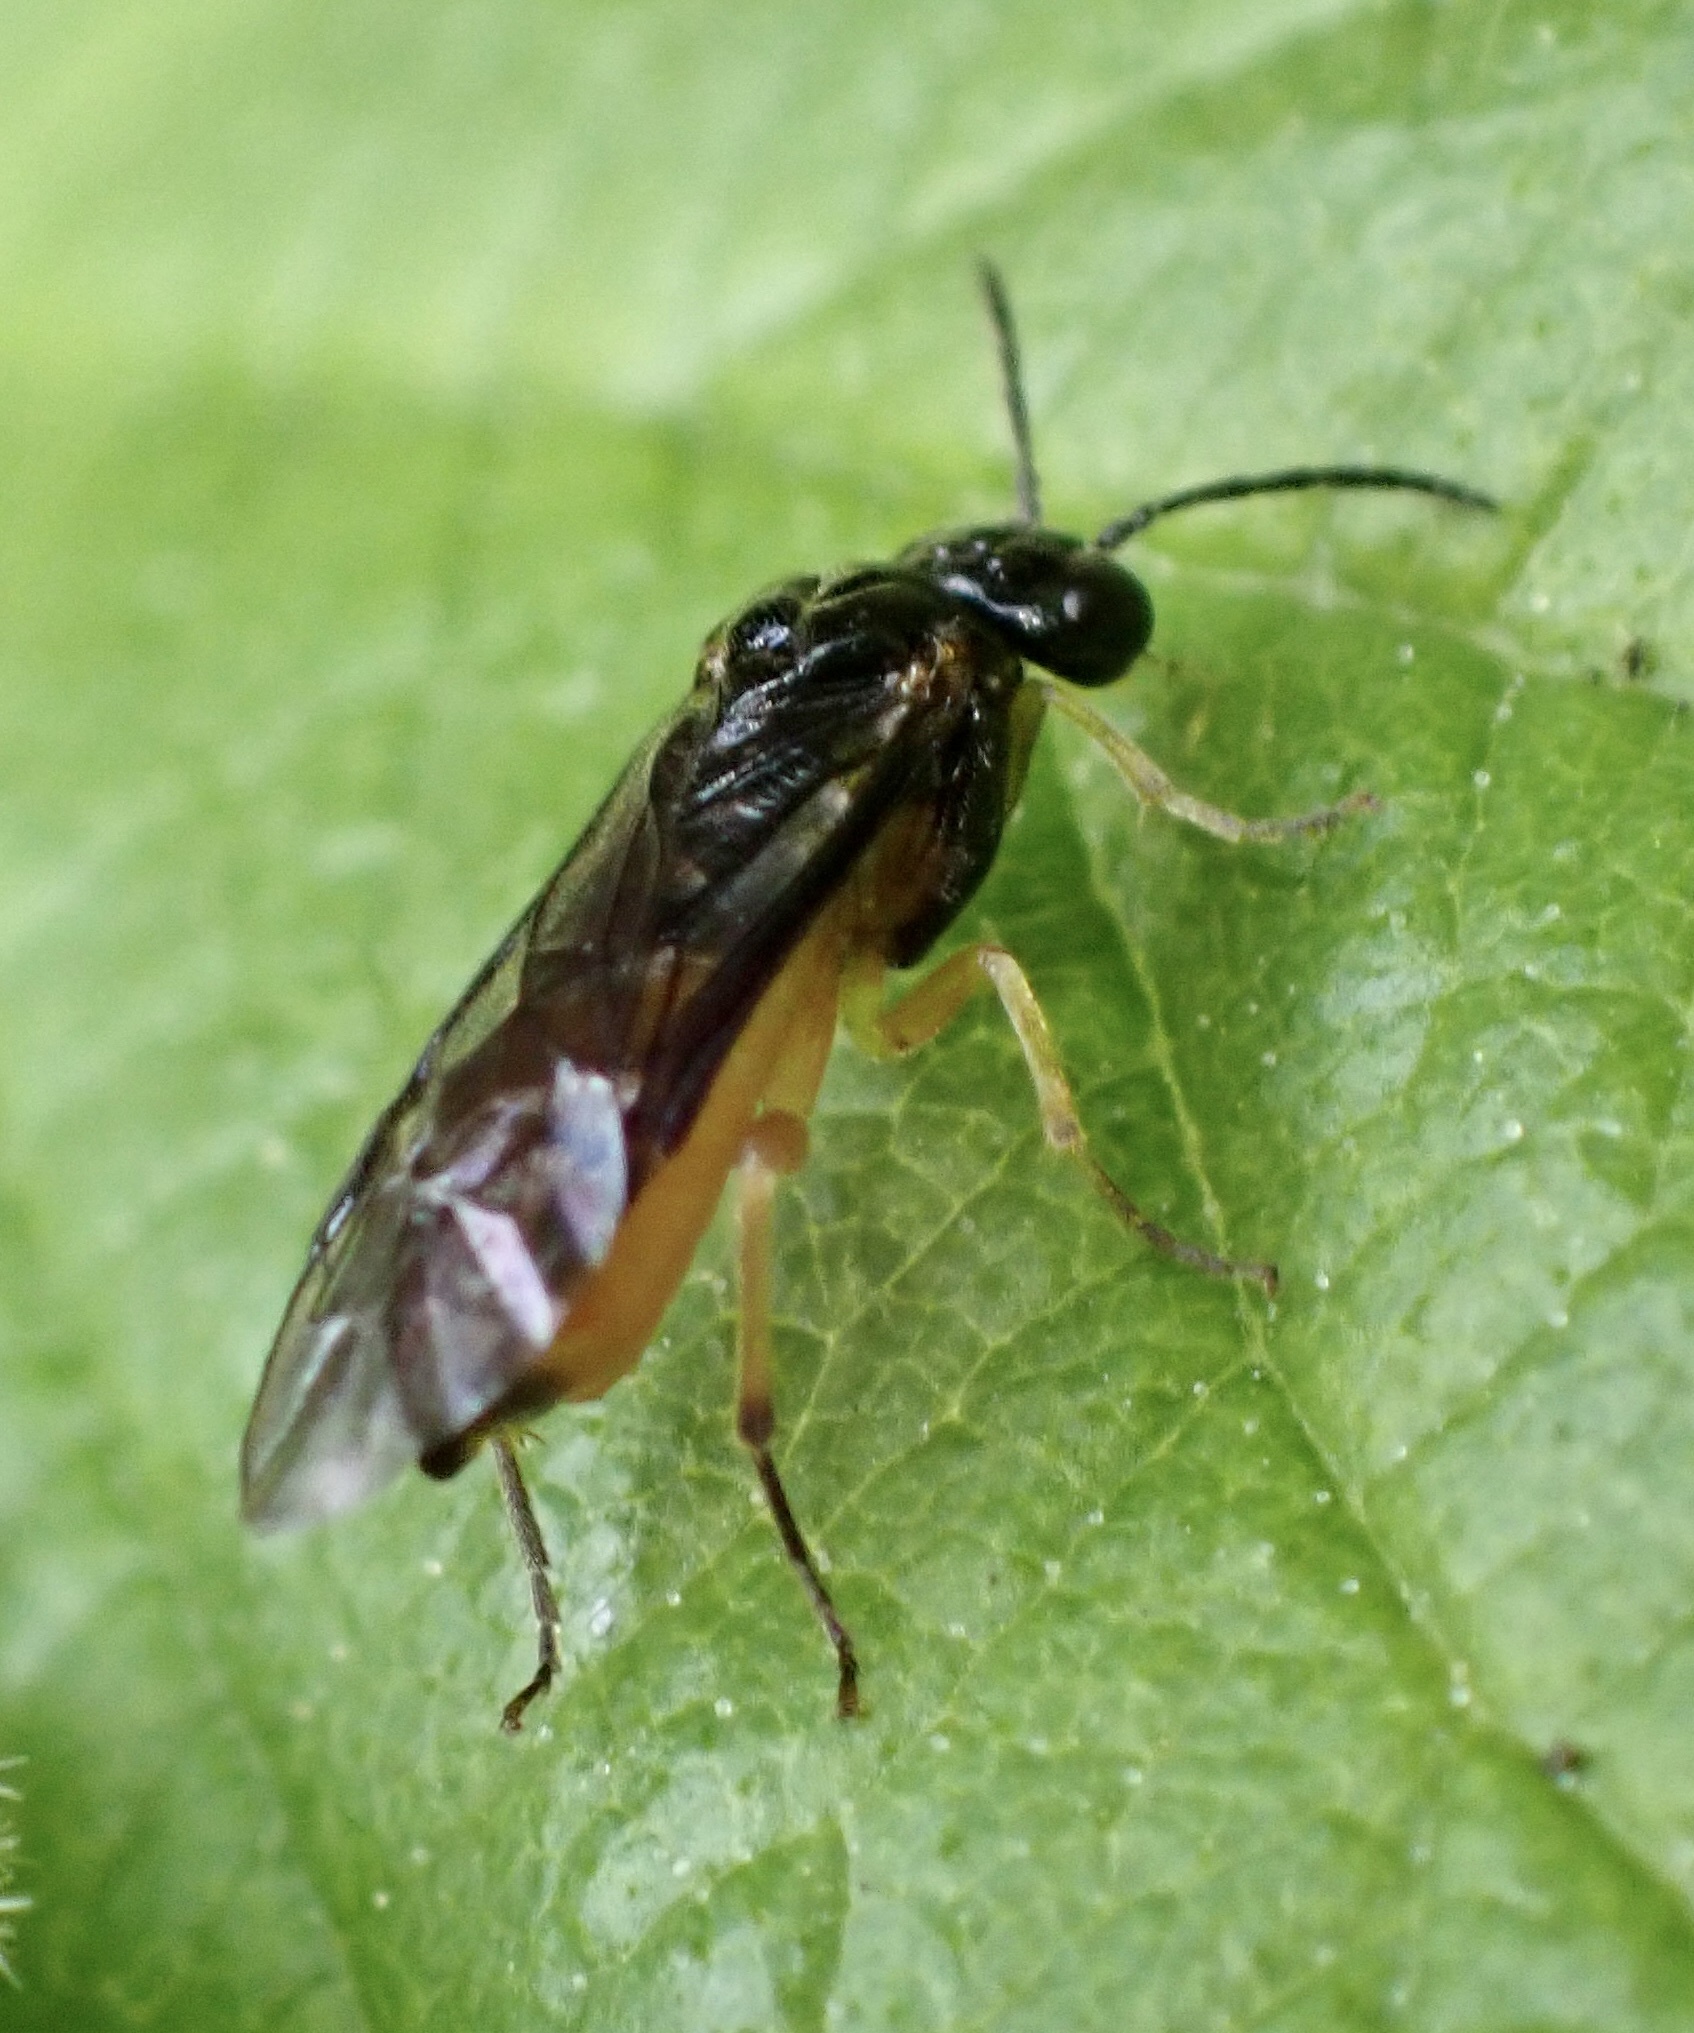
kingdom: Animalia
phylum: Arthropoda
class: Insecta
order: Hymenoptera
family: Tenthredinidae
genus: Halidamia
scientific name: Halidamia affinis
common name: Wasp
